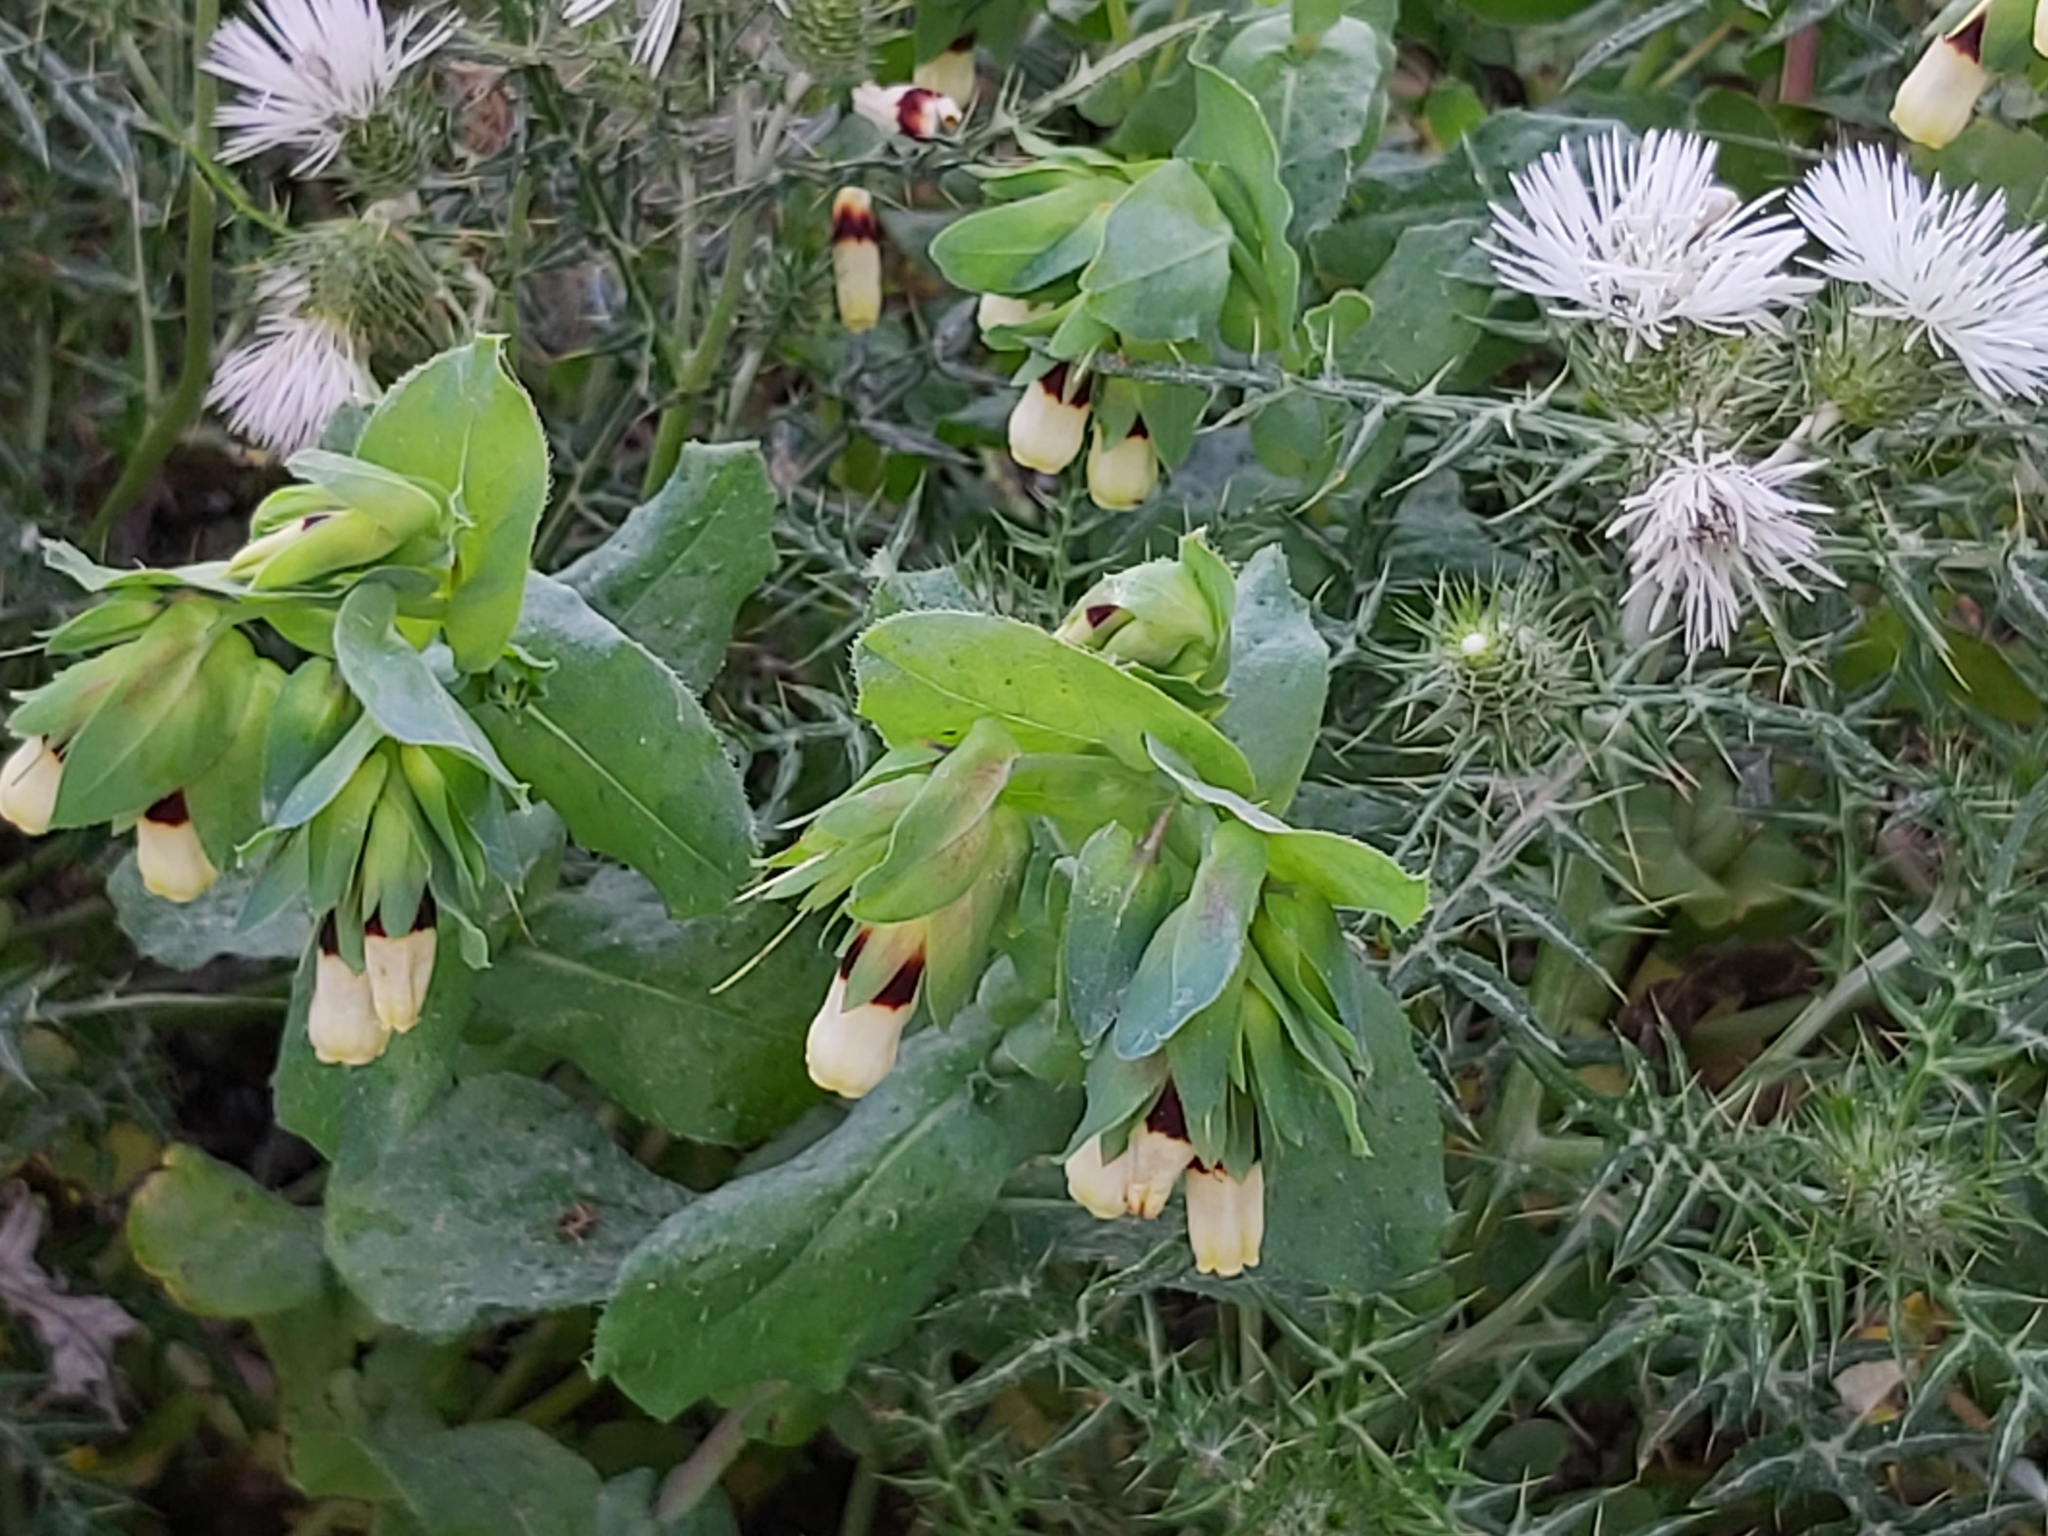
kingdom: Plantae
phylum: Tracheophyta
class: Magnoliopsida
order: Boraginales
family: Boraginaceae
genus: Cerinthe
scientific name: Cerinthe major
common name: Greater honeywort
